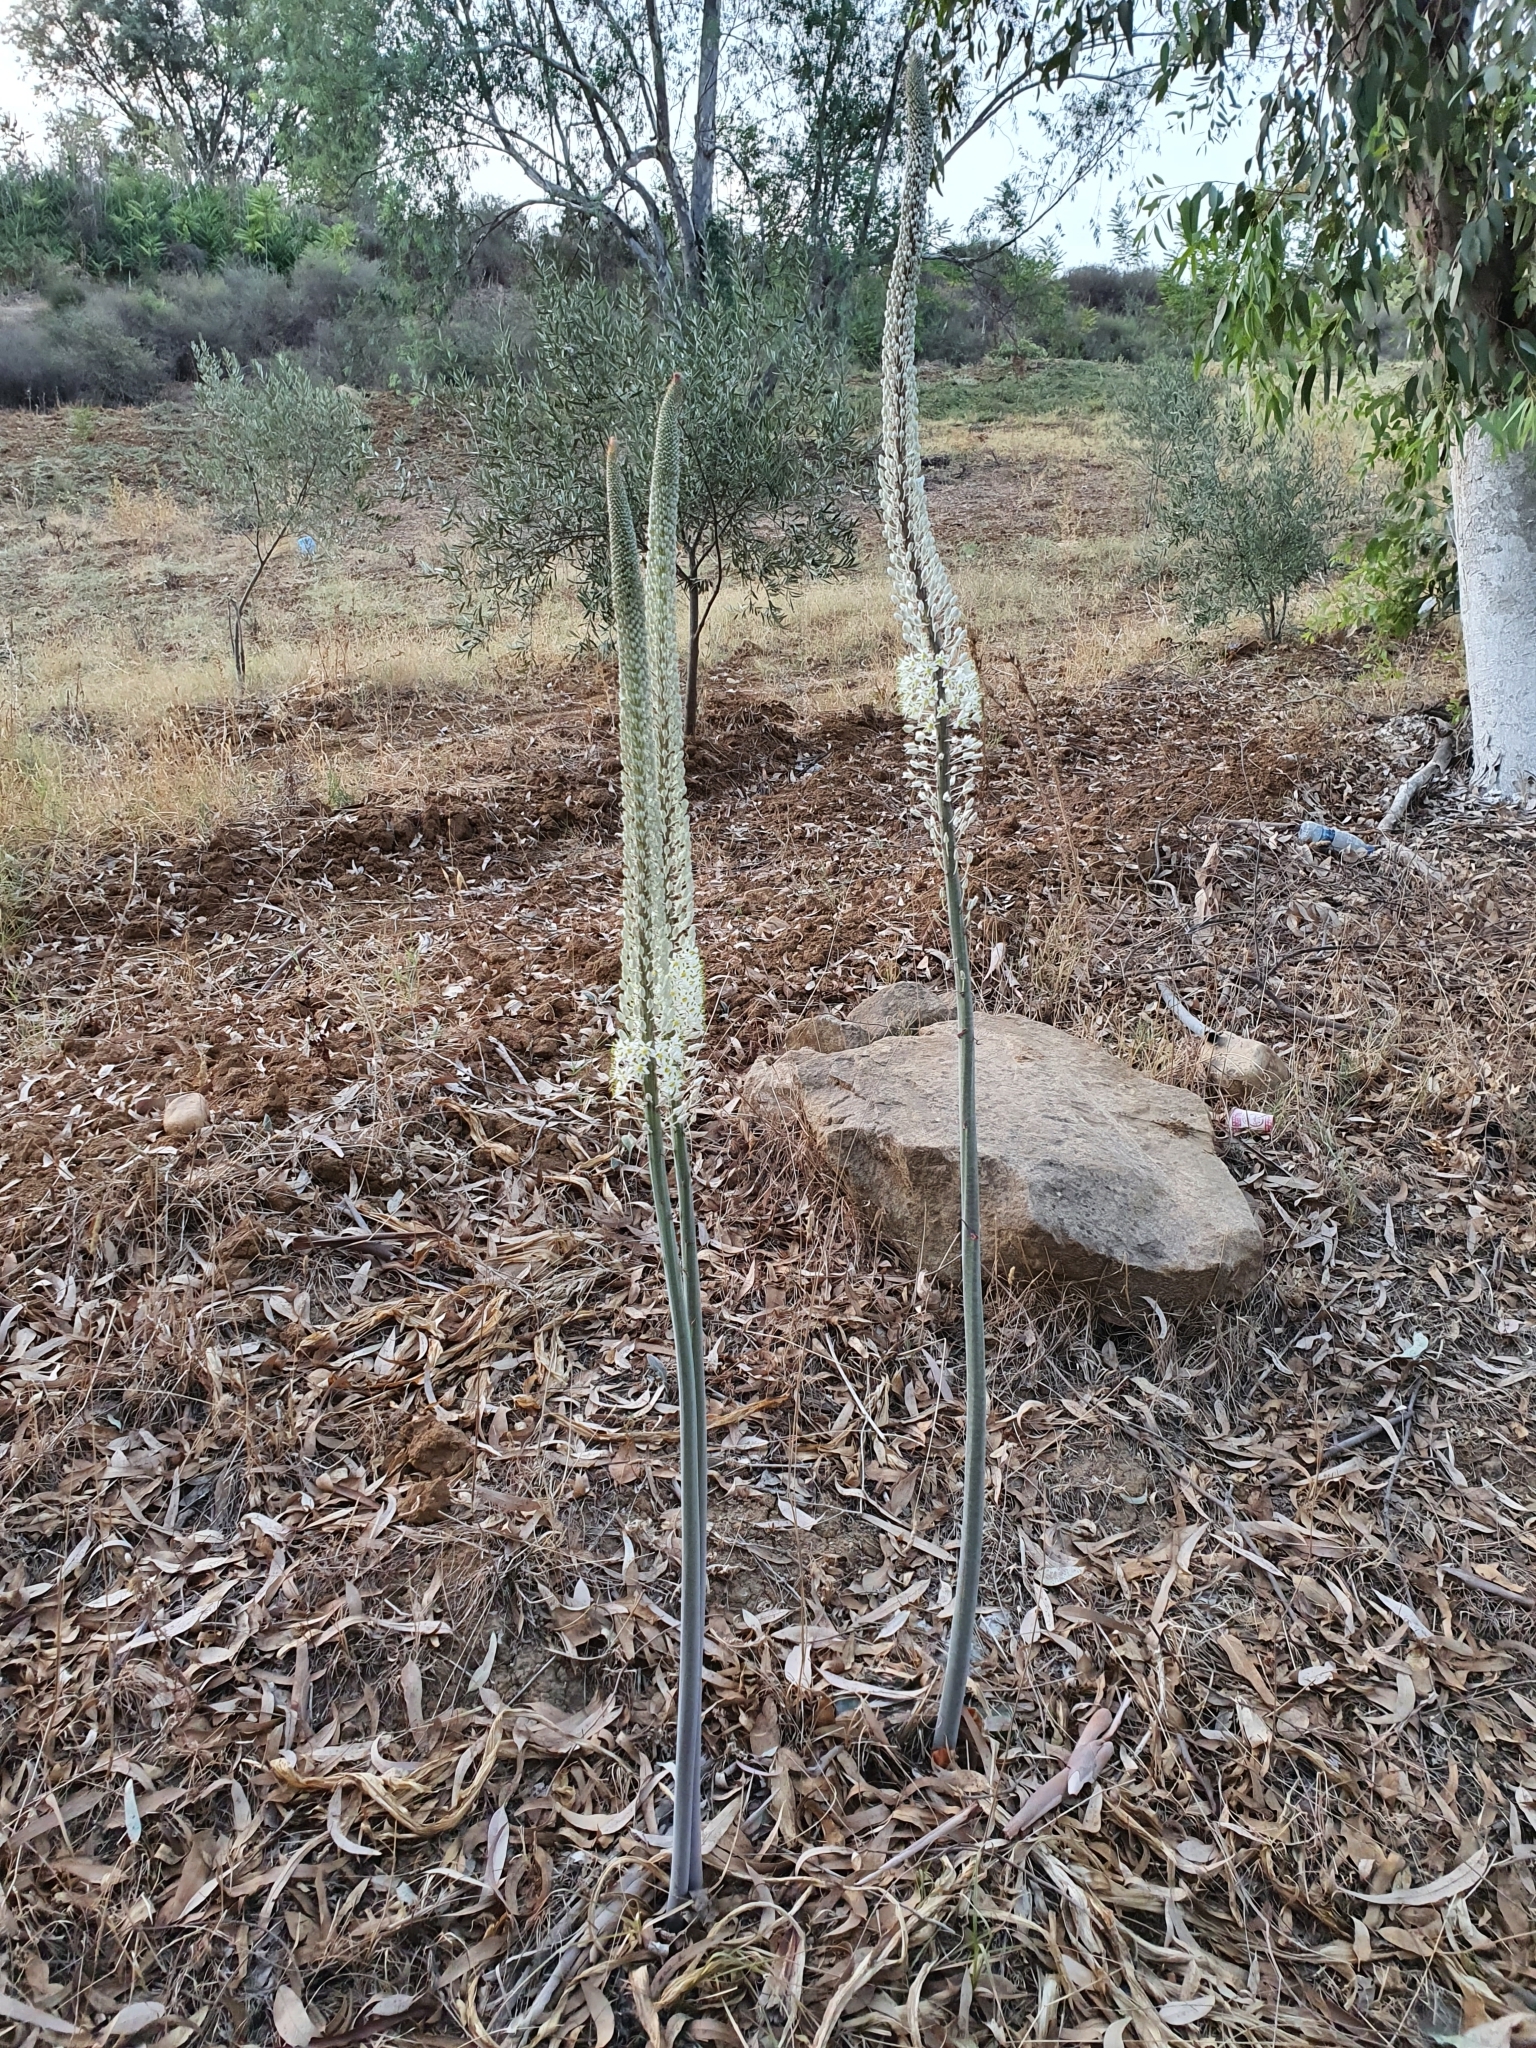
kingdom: Plantae
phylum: Tracheophyta
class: Liliopsida
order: Asparagales
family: Asparagaceae
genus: Drimia
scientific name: Drimia numidica
